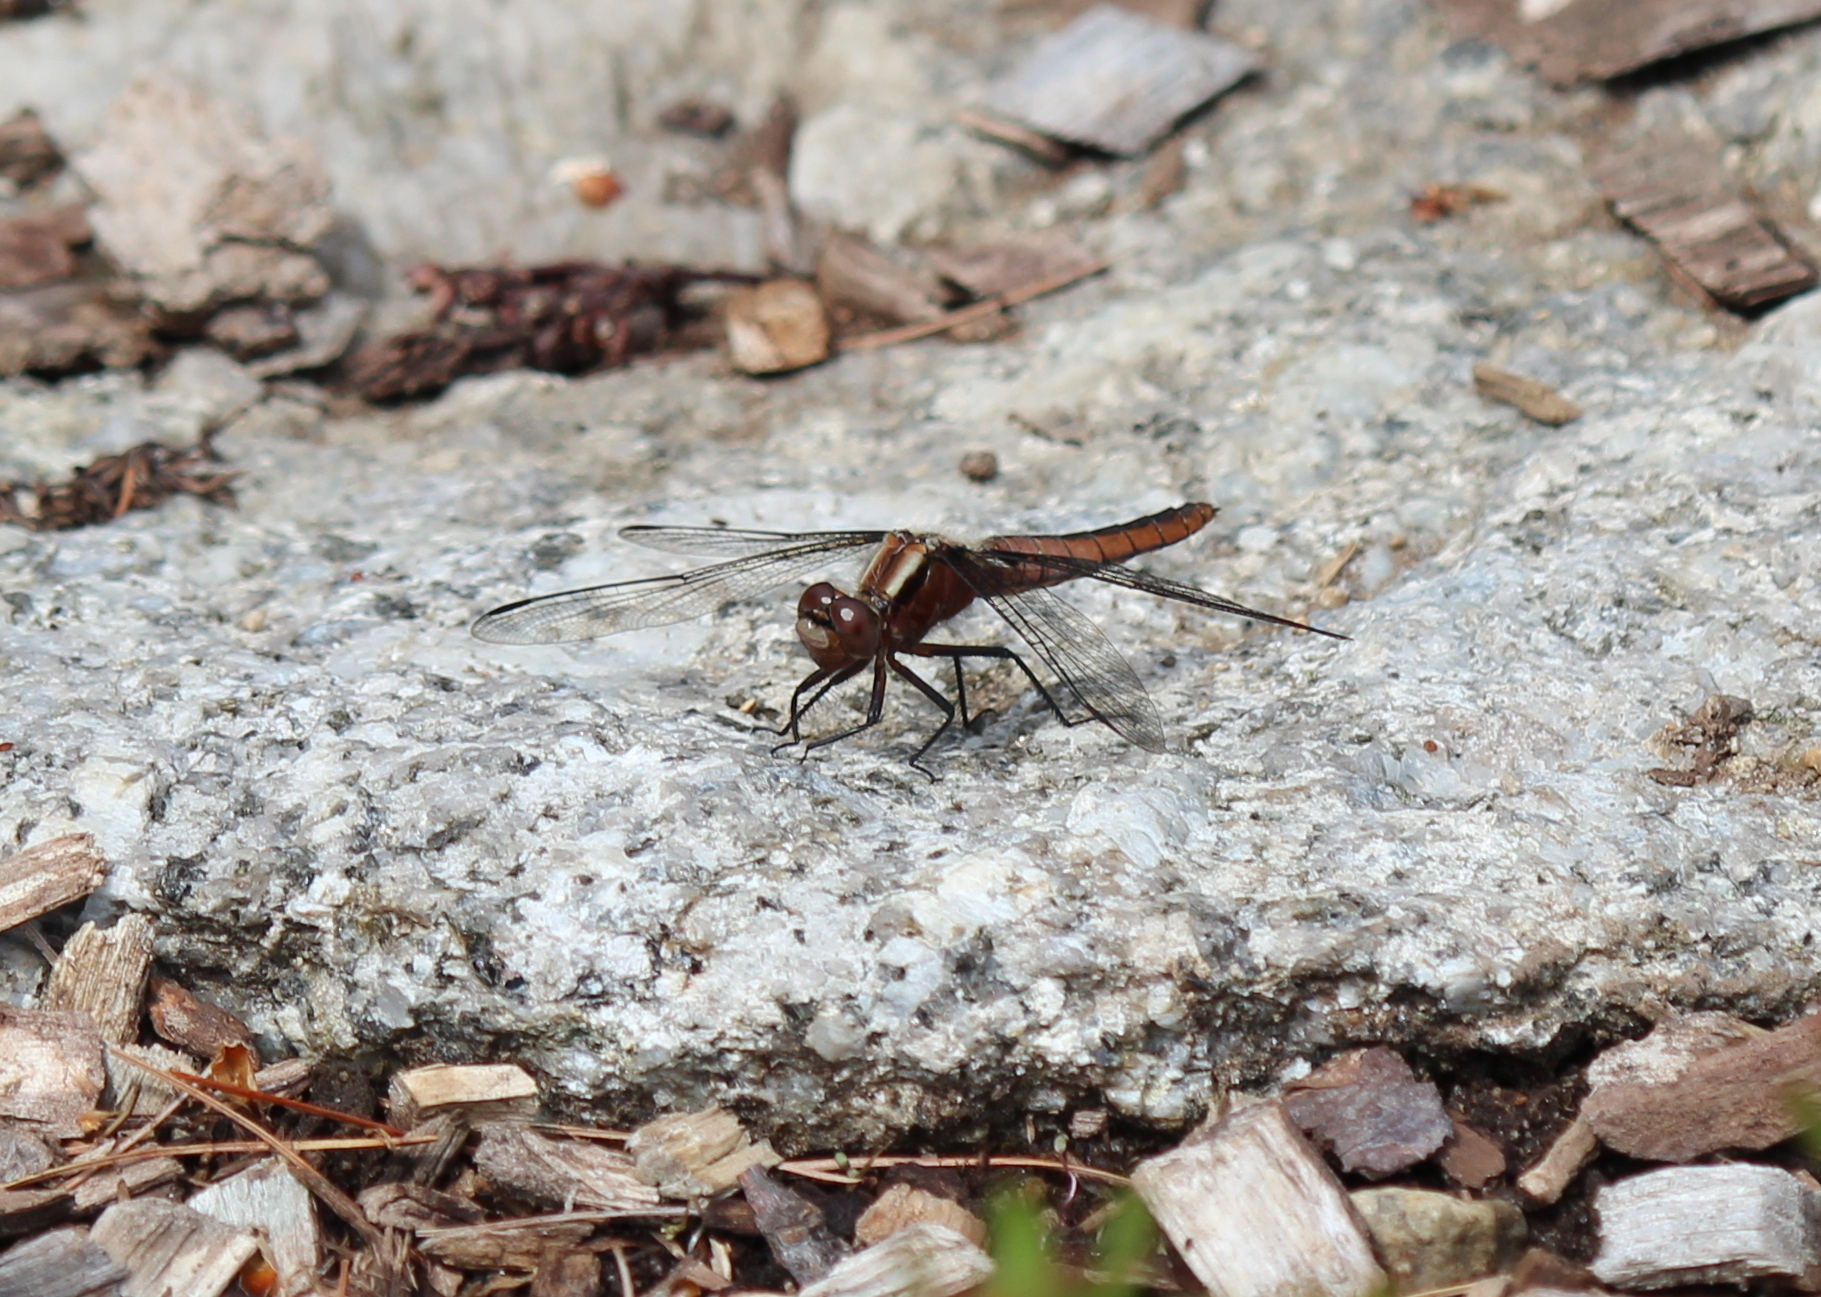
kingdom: Animalia
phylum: Arthropoda
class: Insecta
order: Odonata
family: Libellulidae
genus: Ladona
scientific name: Ladona julia
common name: Chalk-fronted corporal
